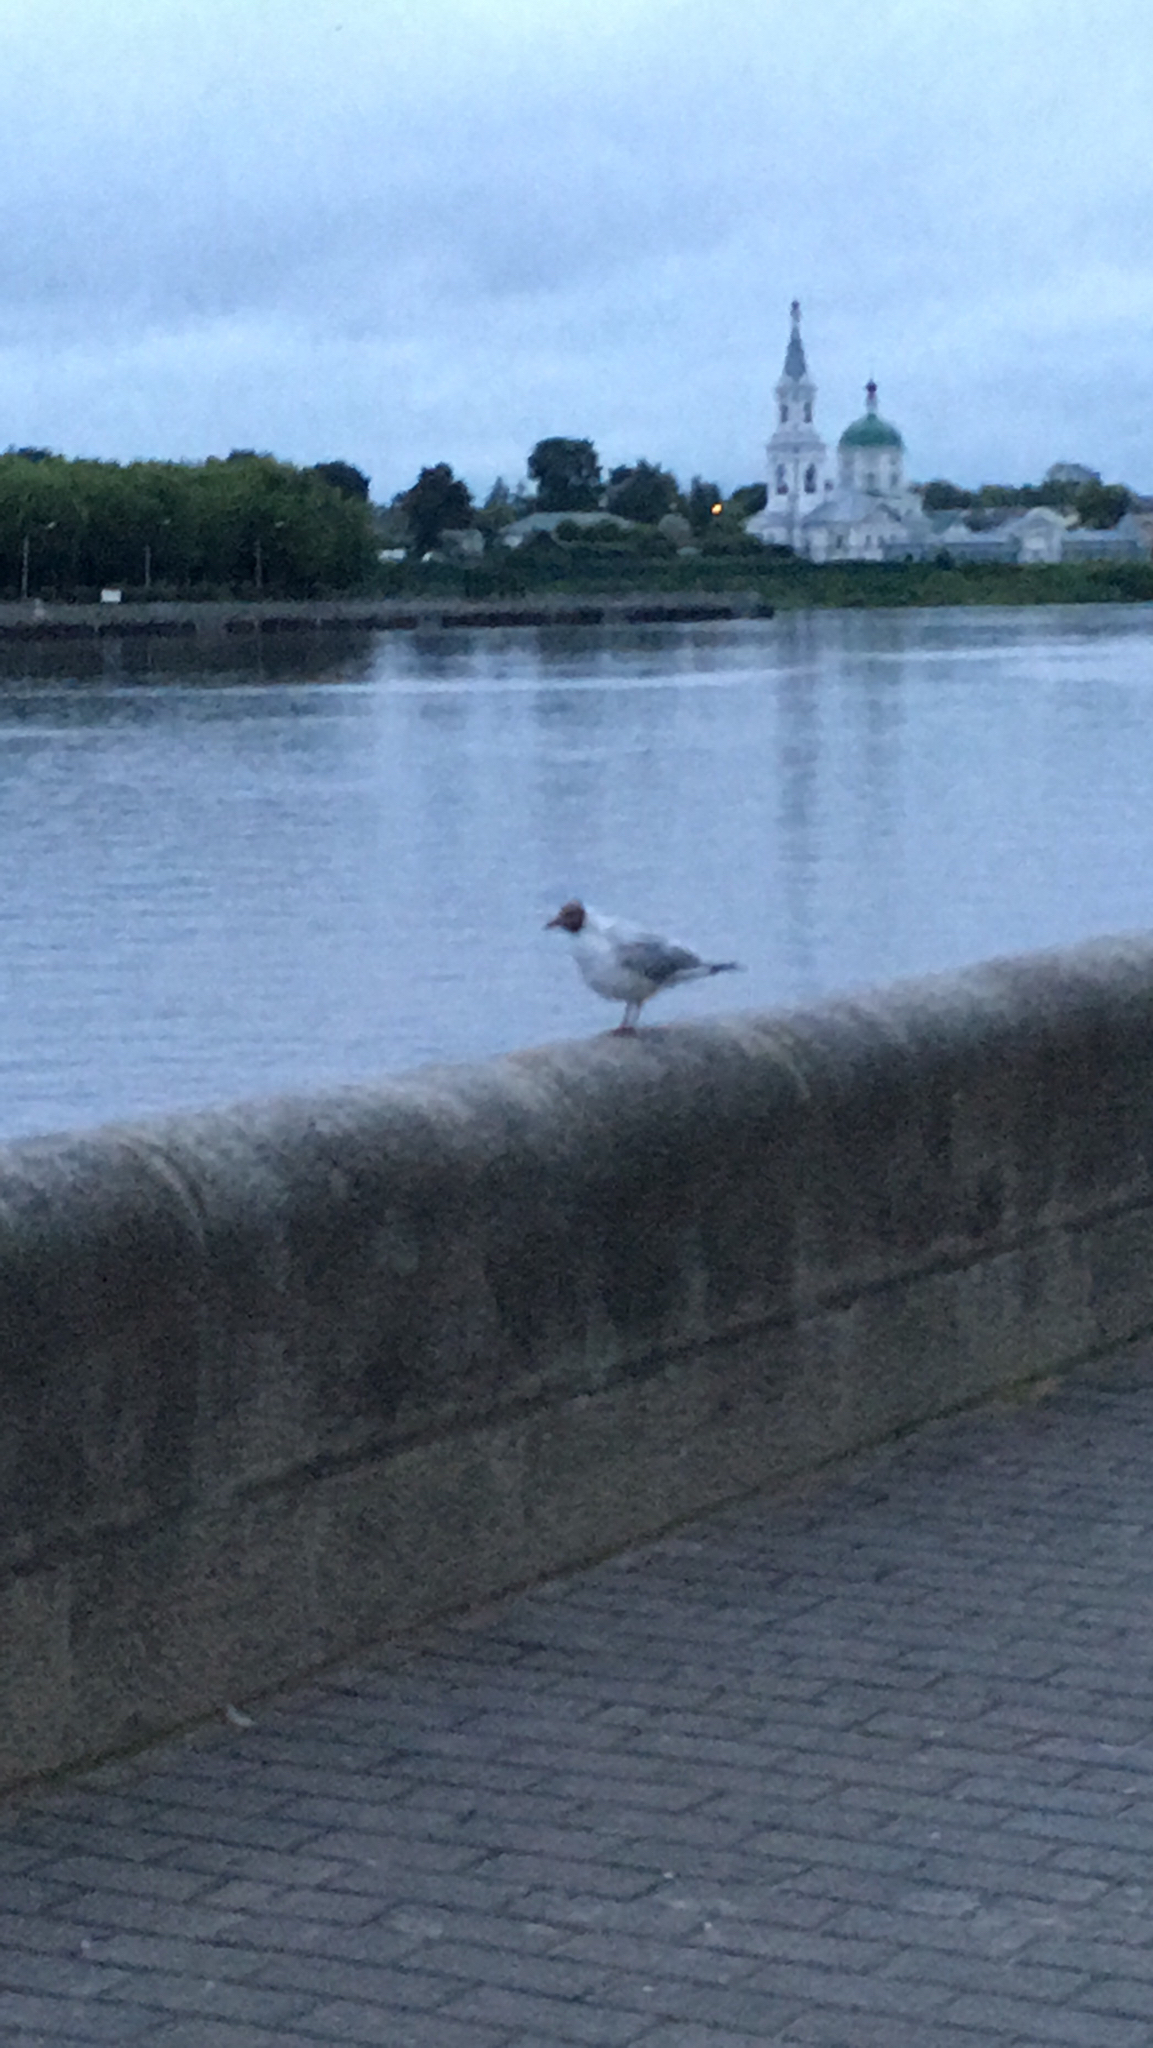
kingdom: Animalia
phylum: Chordata
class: Aves
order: Charadriiformes
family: Laridae
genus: Chroicocephalus
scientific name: Chroicocephalus ridibundus
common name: Black-headed gull
